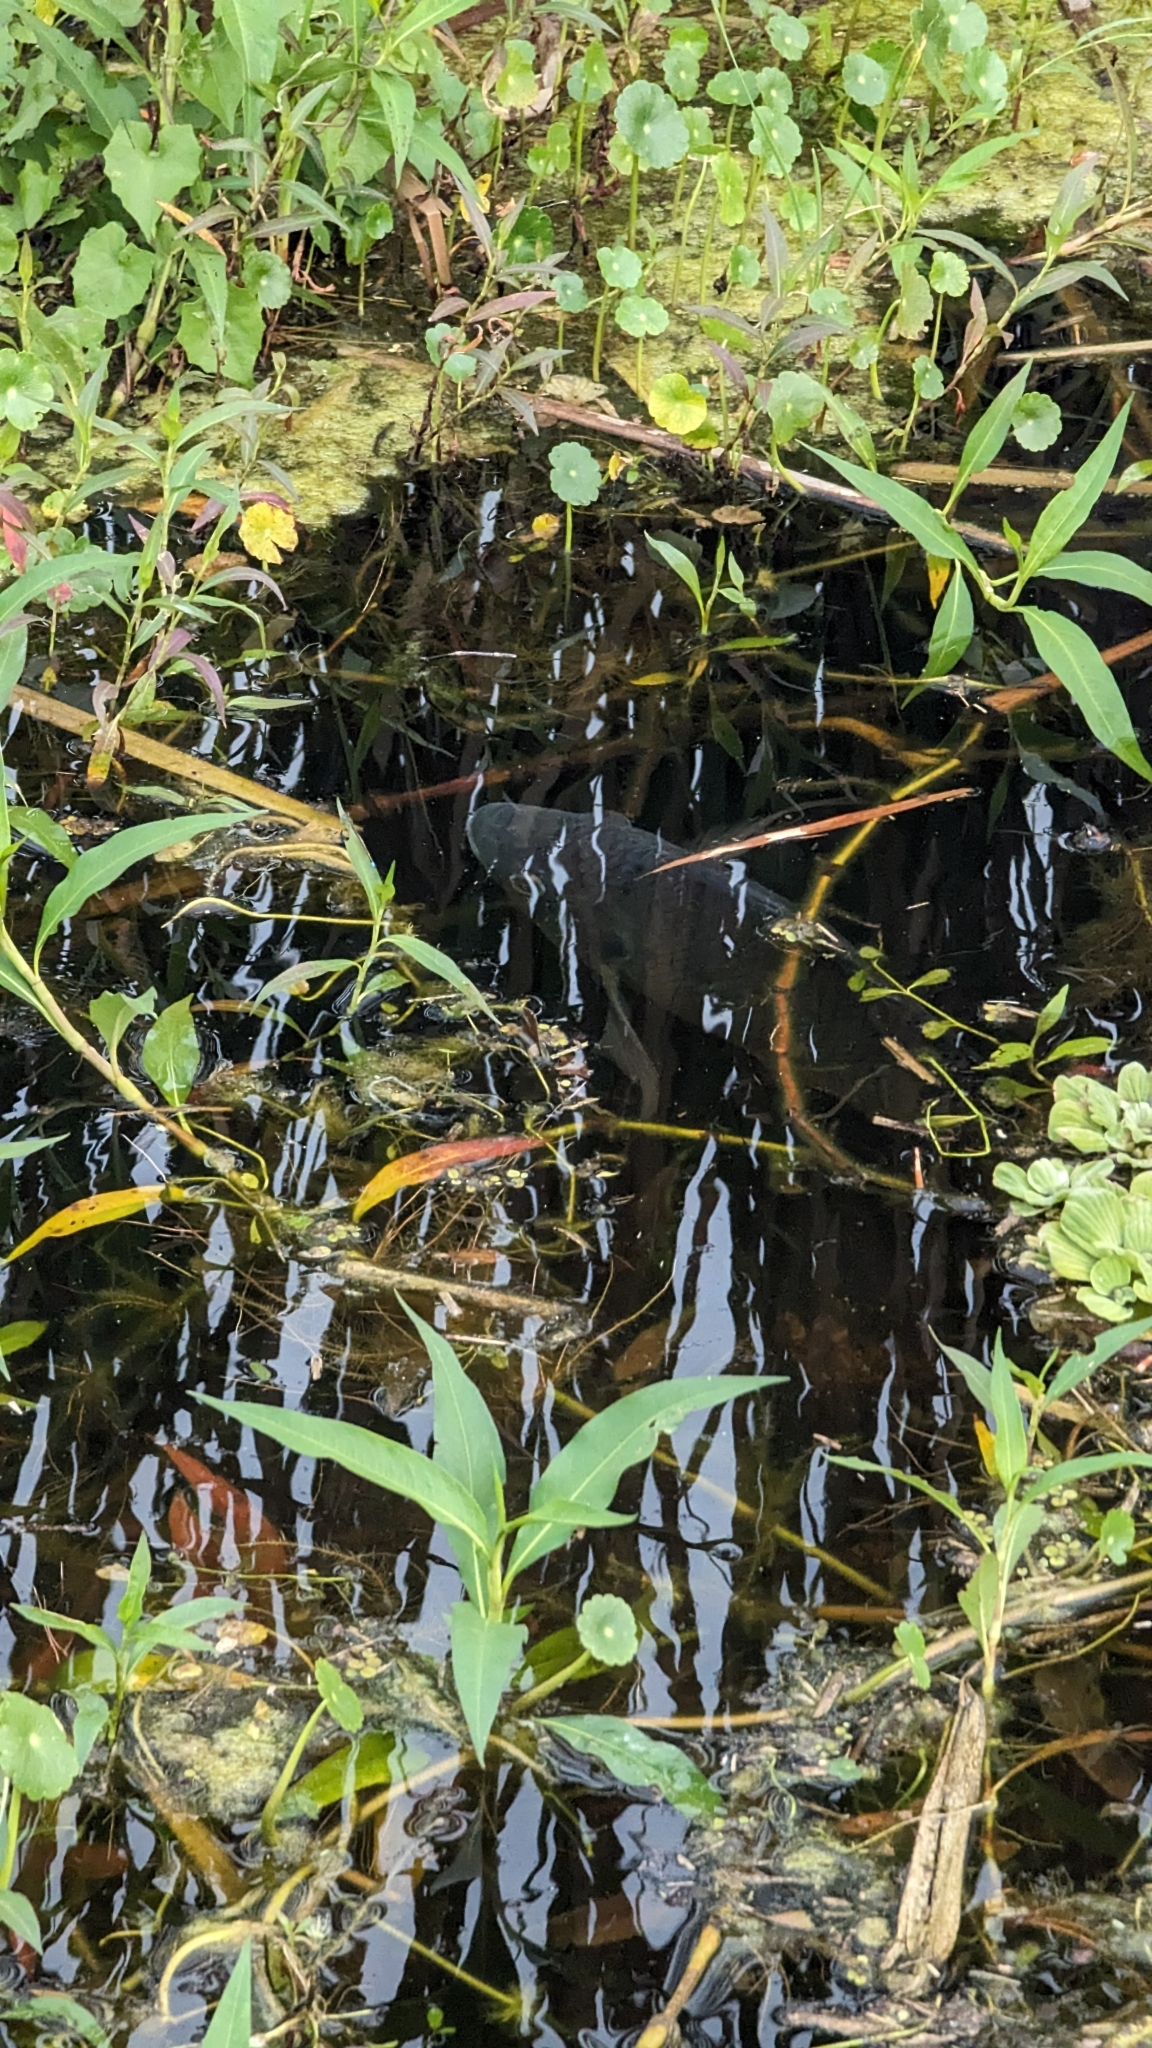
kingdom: Animalia
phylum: Chordata
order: Perciformes
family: Cichlidae
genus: Oreochromis
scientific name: Oreochromis aureus
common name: Blue tilapia
